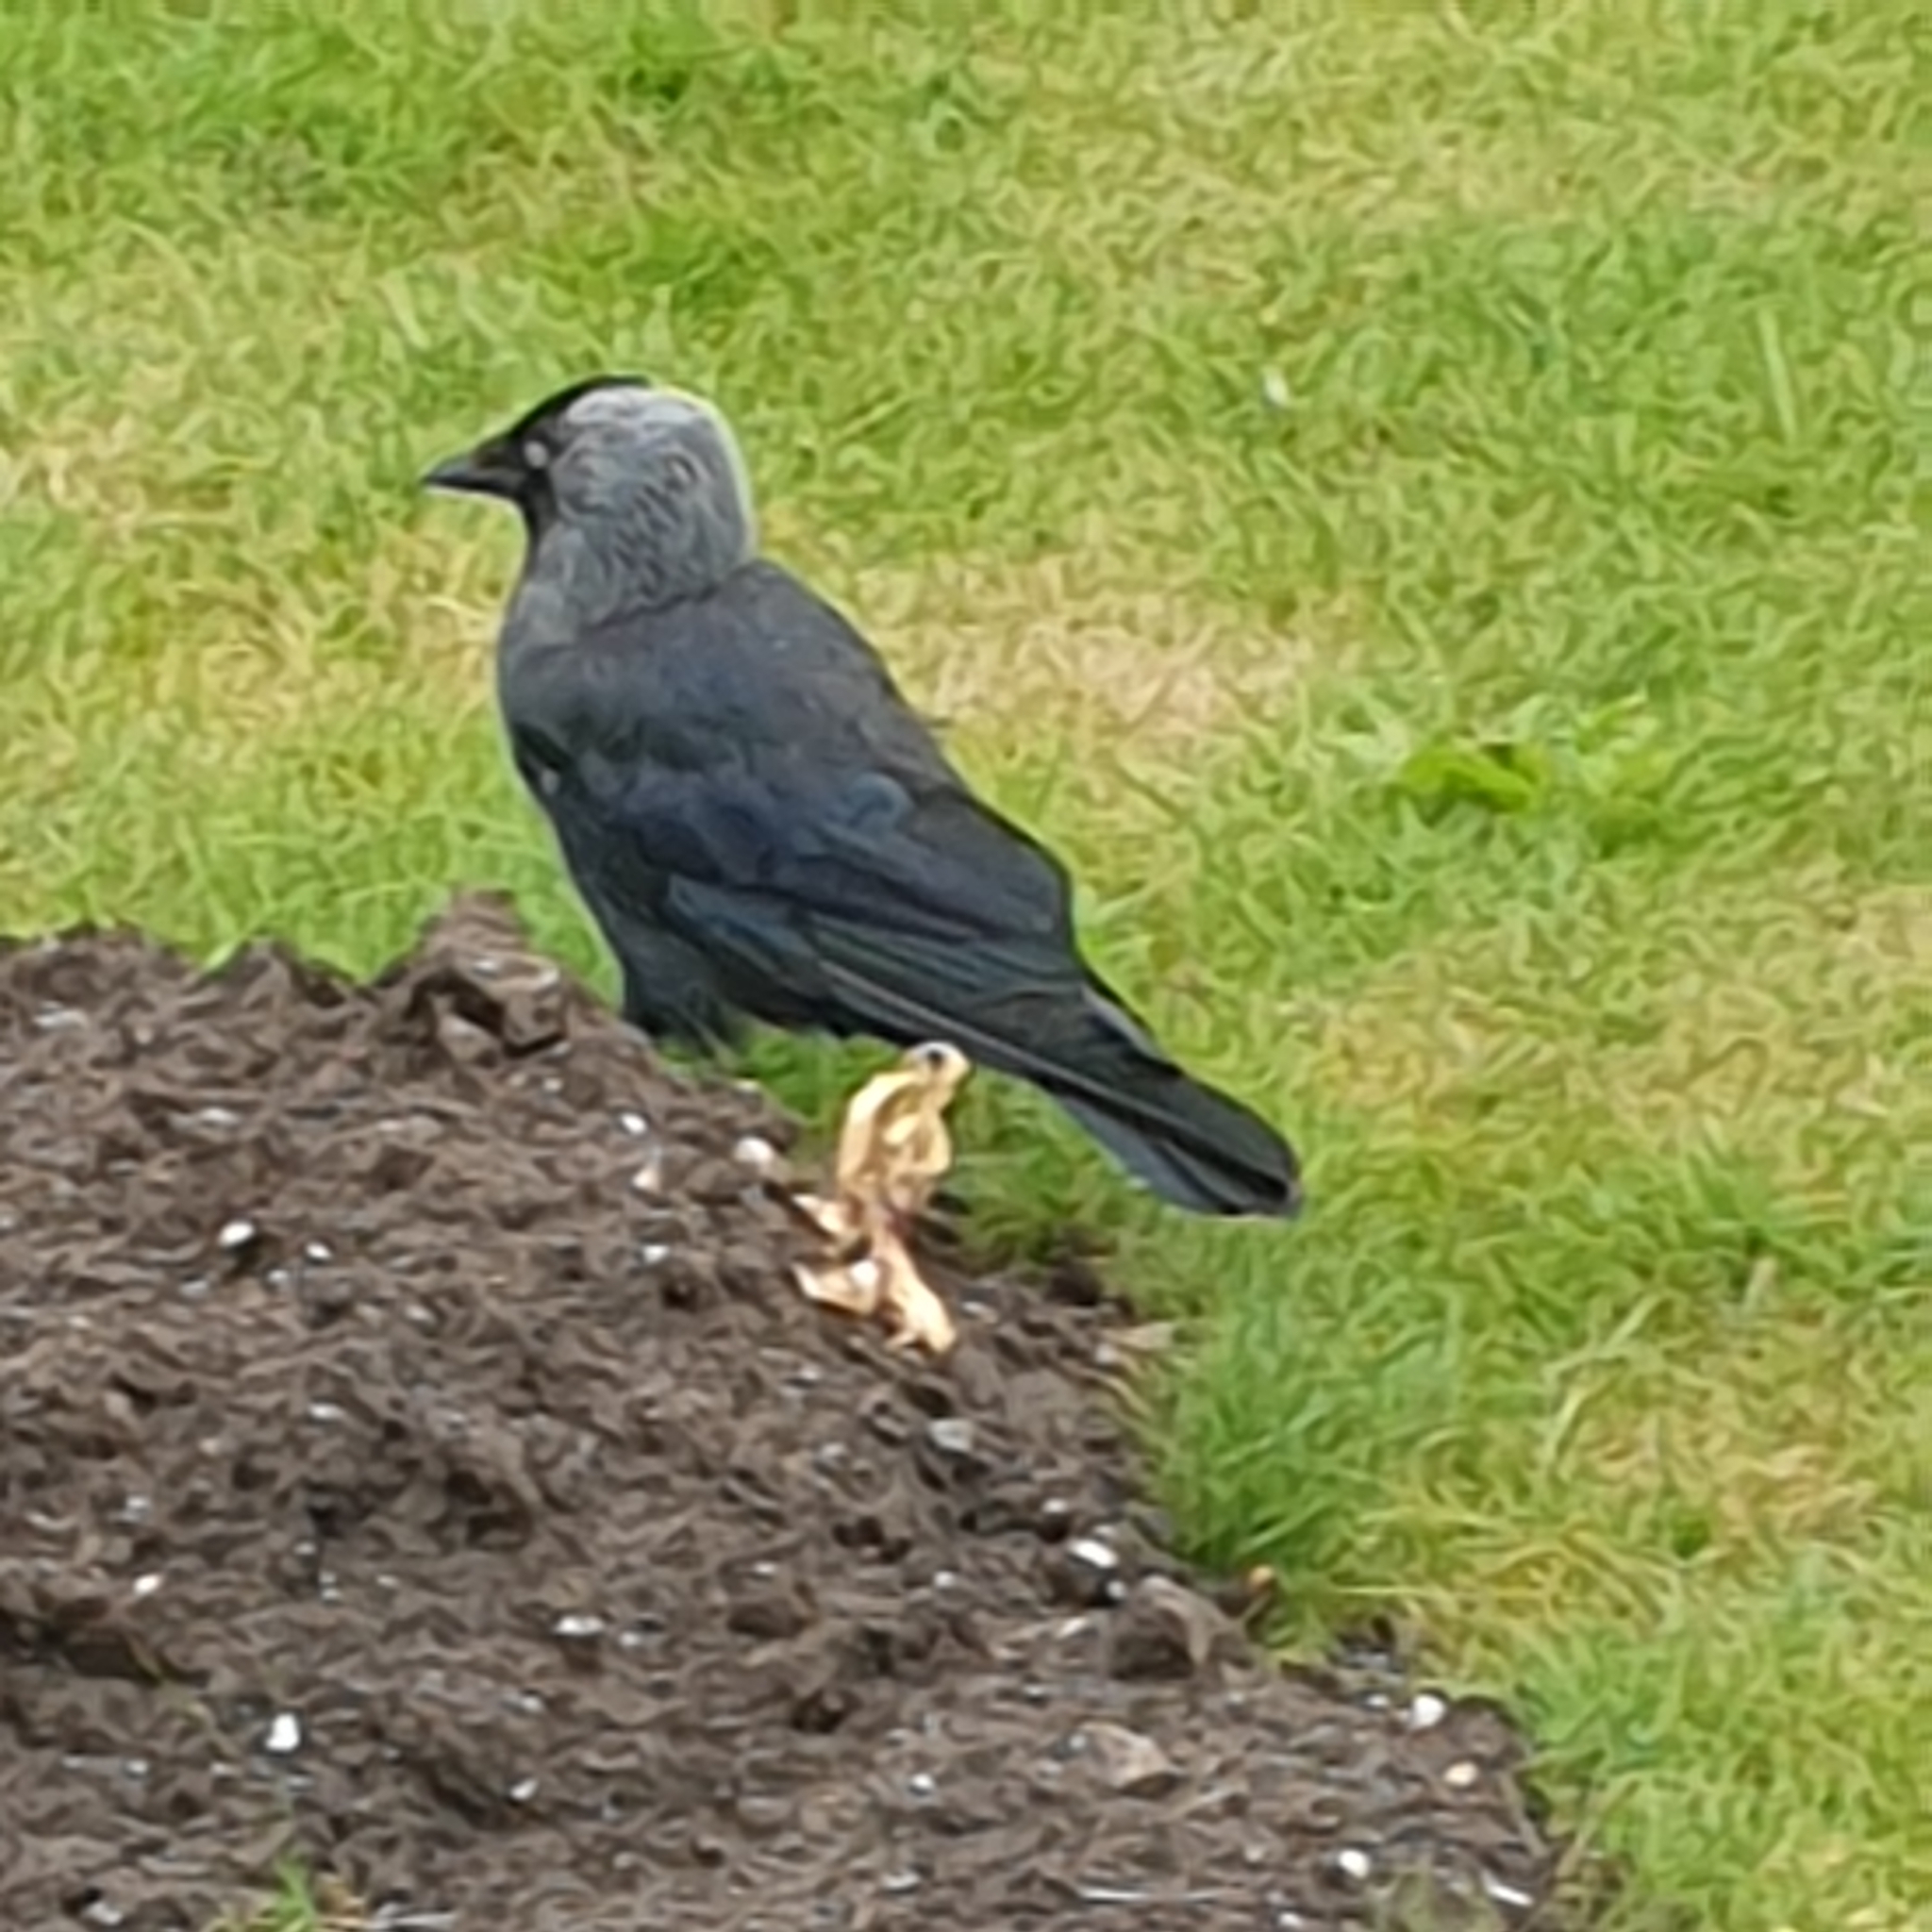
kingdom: Animalia
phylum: Chordata
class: Aves
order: Passeriformes
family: Corvidae
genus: Coloeus
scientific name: Coloeus monedula
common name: Western jackdaw
